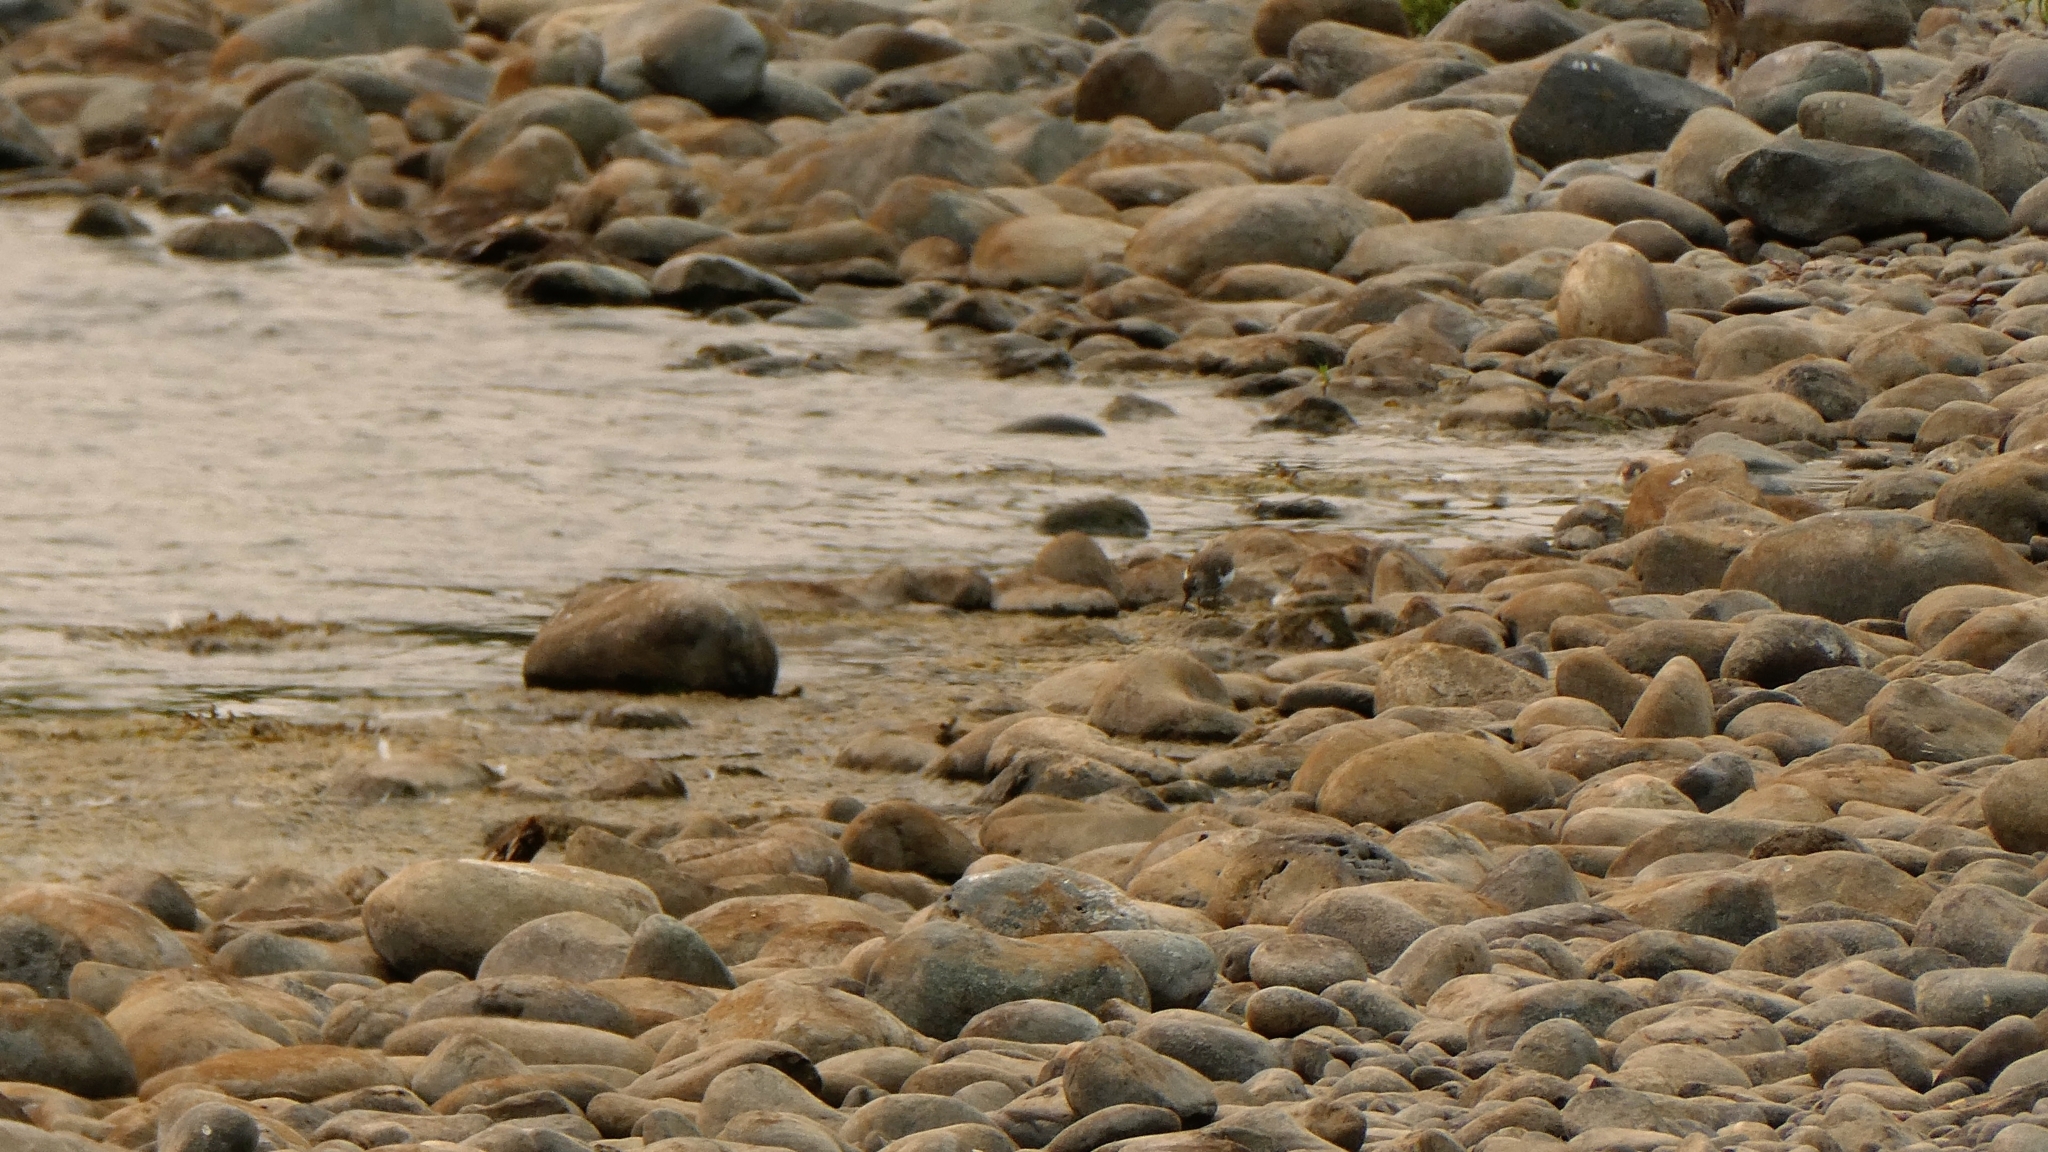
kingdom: Animalia
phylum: Chordata
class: Aves
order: Charadriiformes
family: Scolopacidae
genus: Actitis
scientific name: Actitis macularius
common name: Spotted sandpiper
